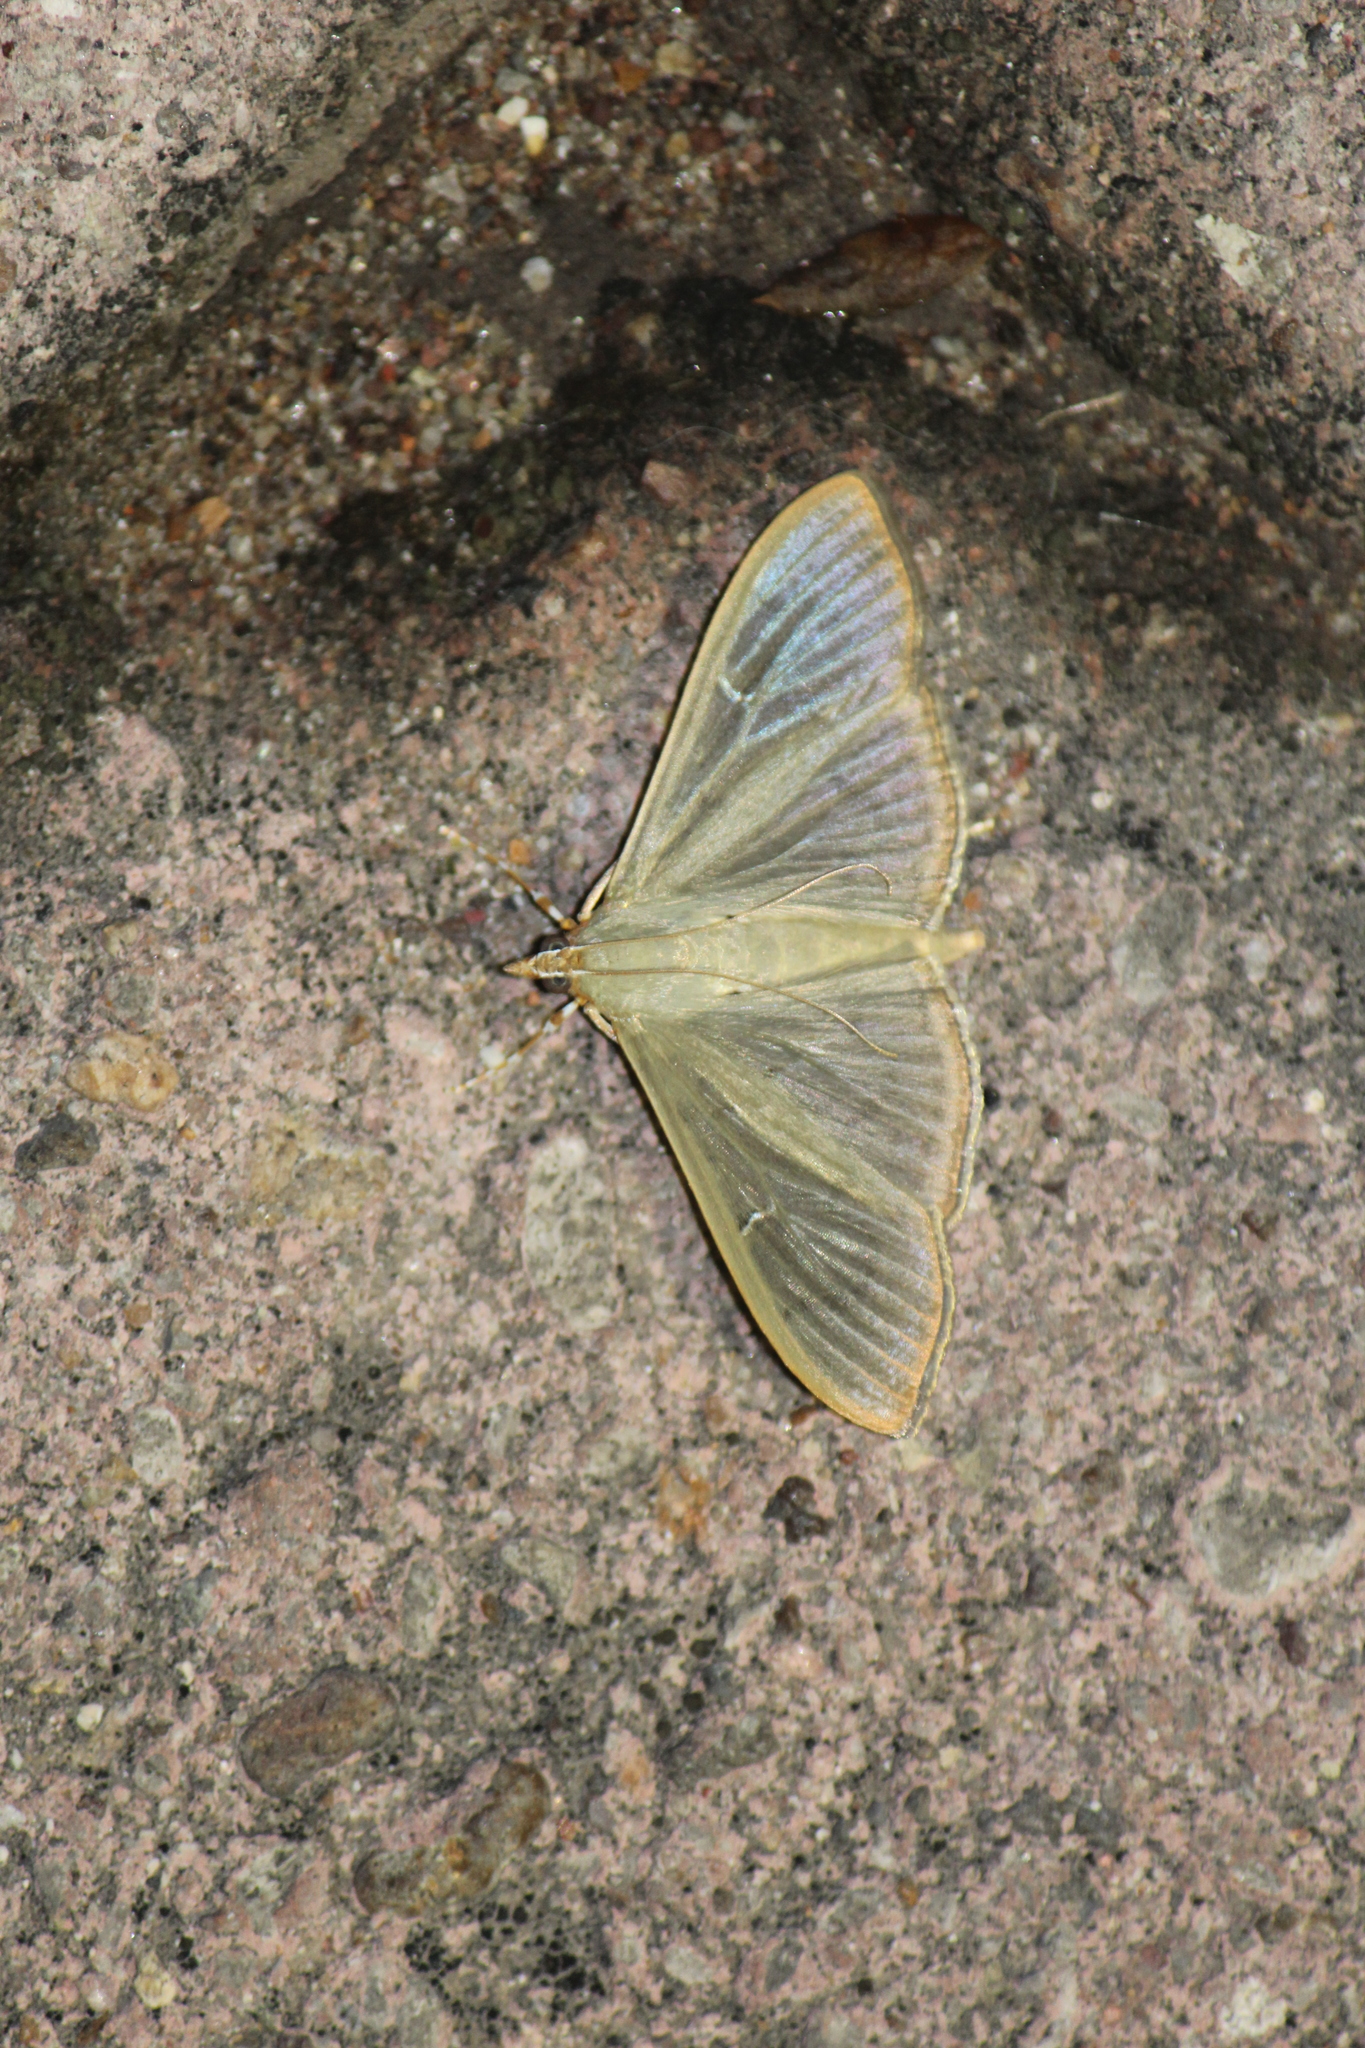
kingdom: Animalia
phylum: Arthropoda
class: Insecta
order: Lepidoptera
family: Crambidae
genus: Condylorrhiza
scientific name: Condylorrhiza vestigialis
